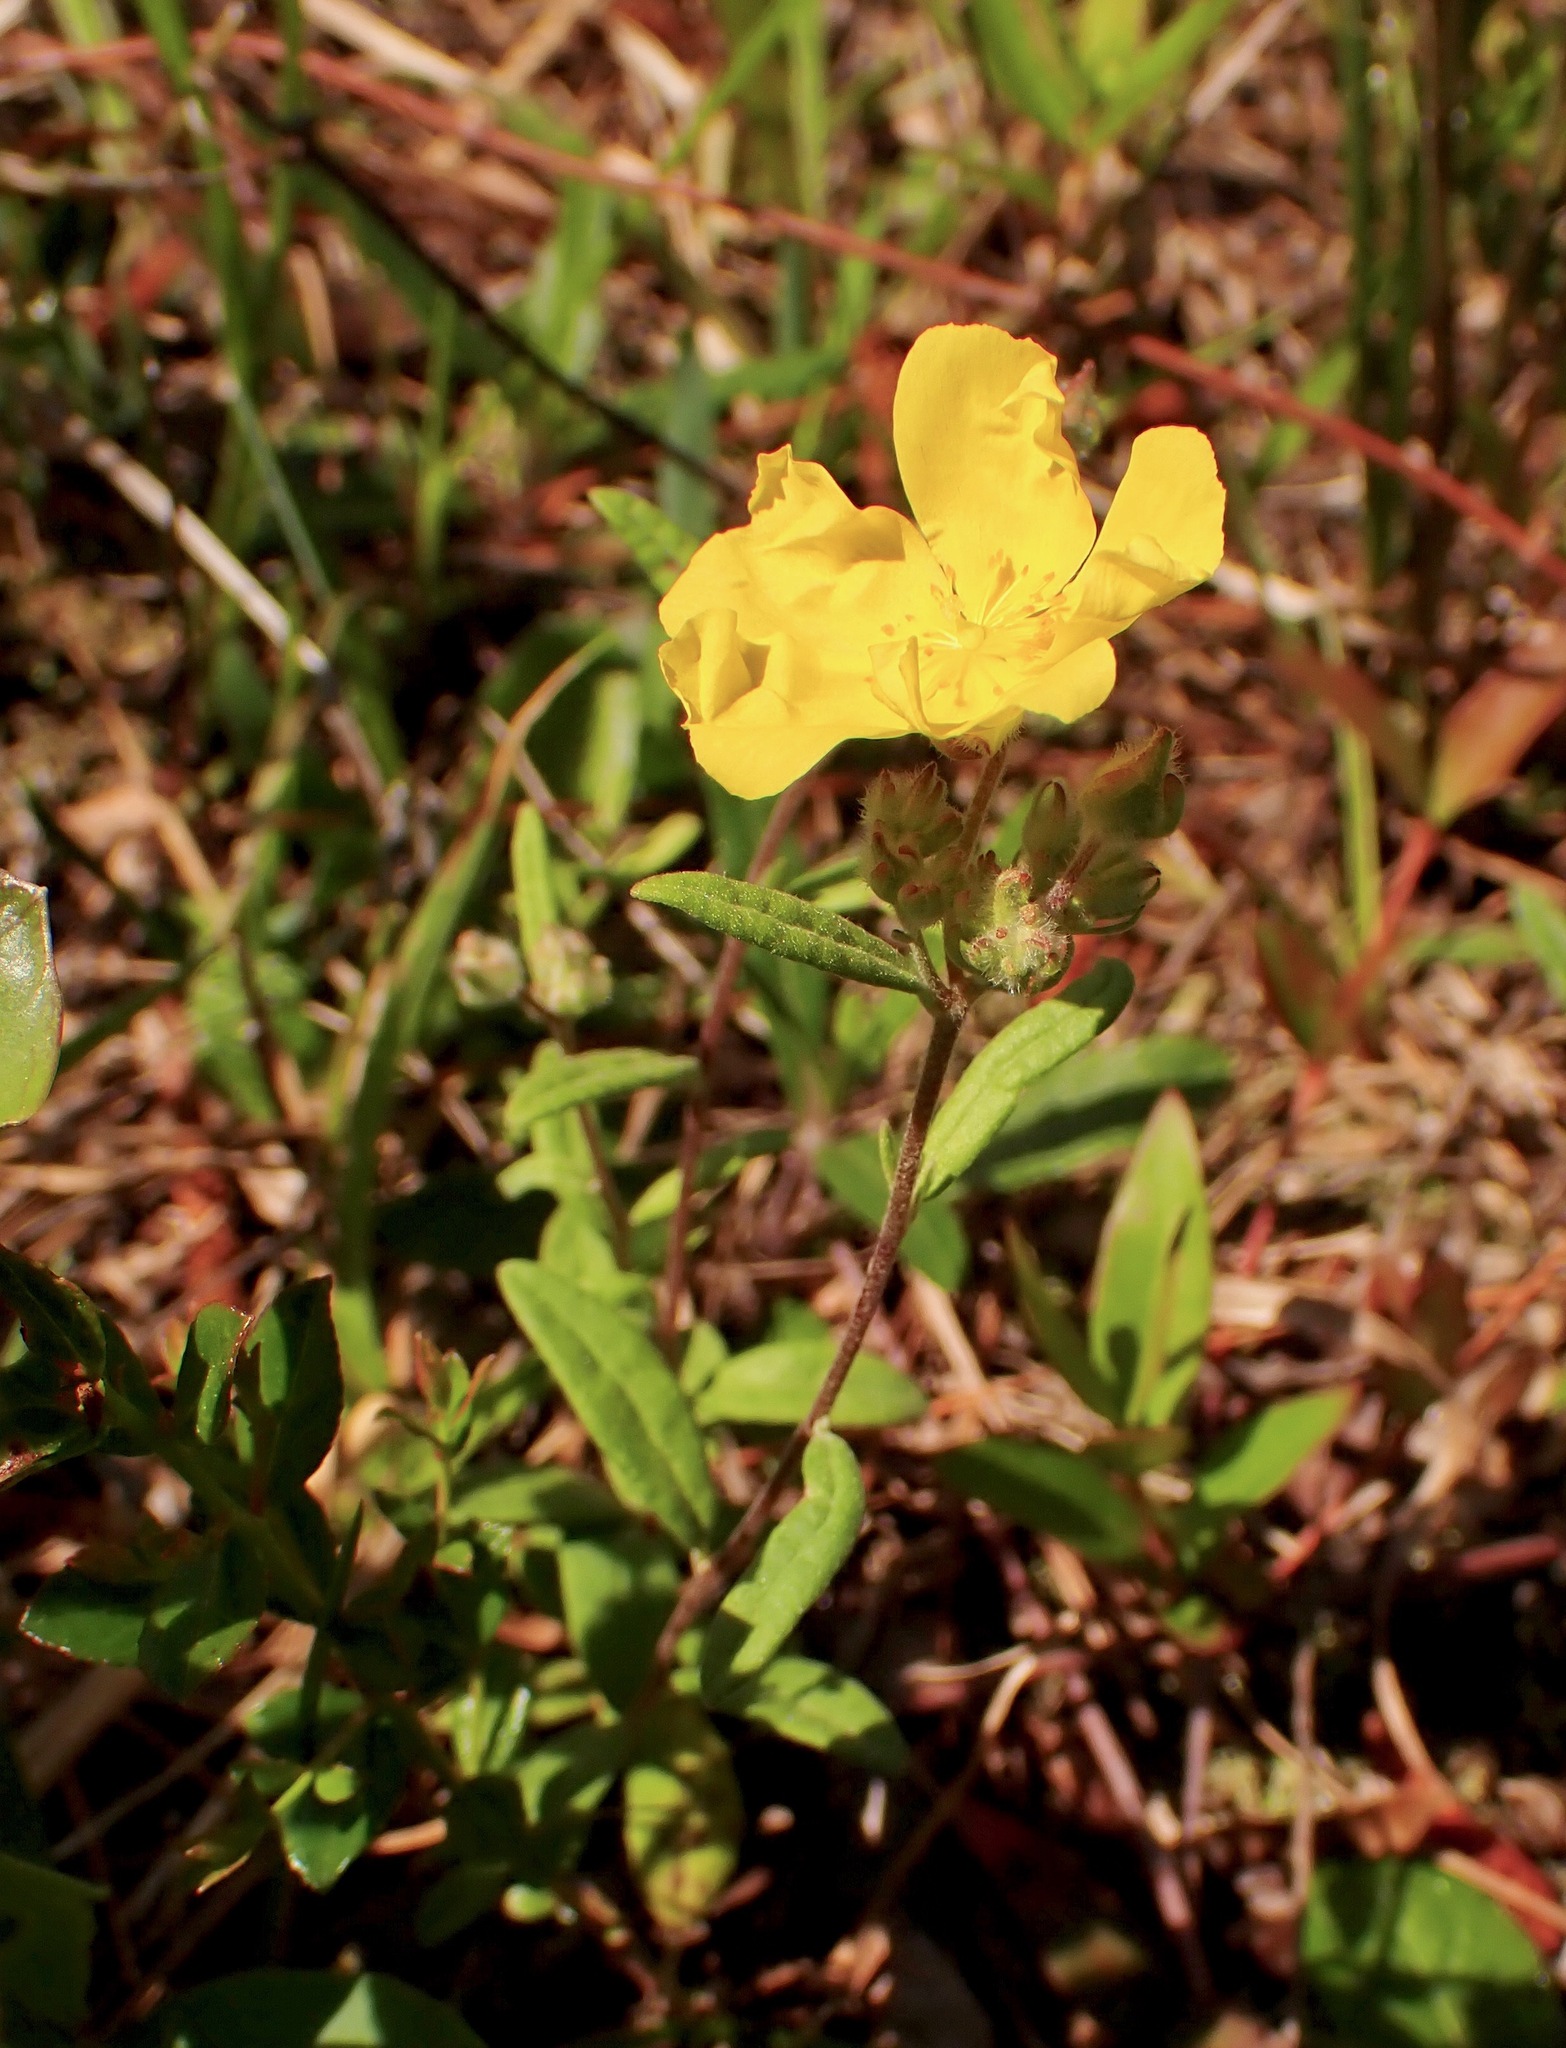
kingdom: Plantae
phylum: Tracheophyta
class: Magnoliopsida
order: Malvales
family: Cistaceae
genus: Crocanthemum
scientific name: Crocanthemum corymbosum
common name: Pinebarren sun-rose
